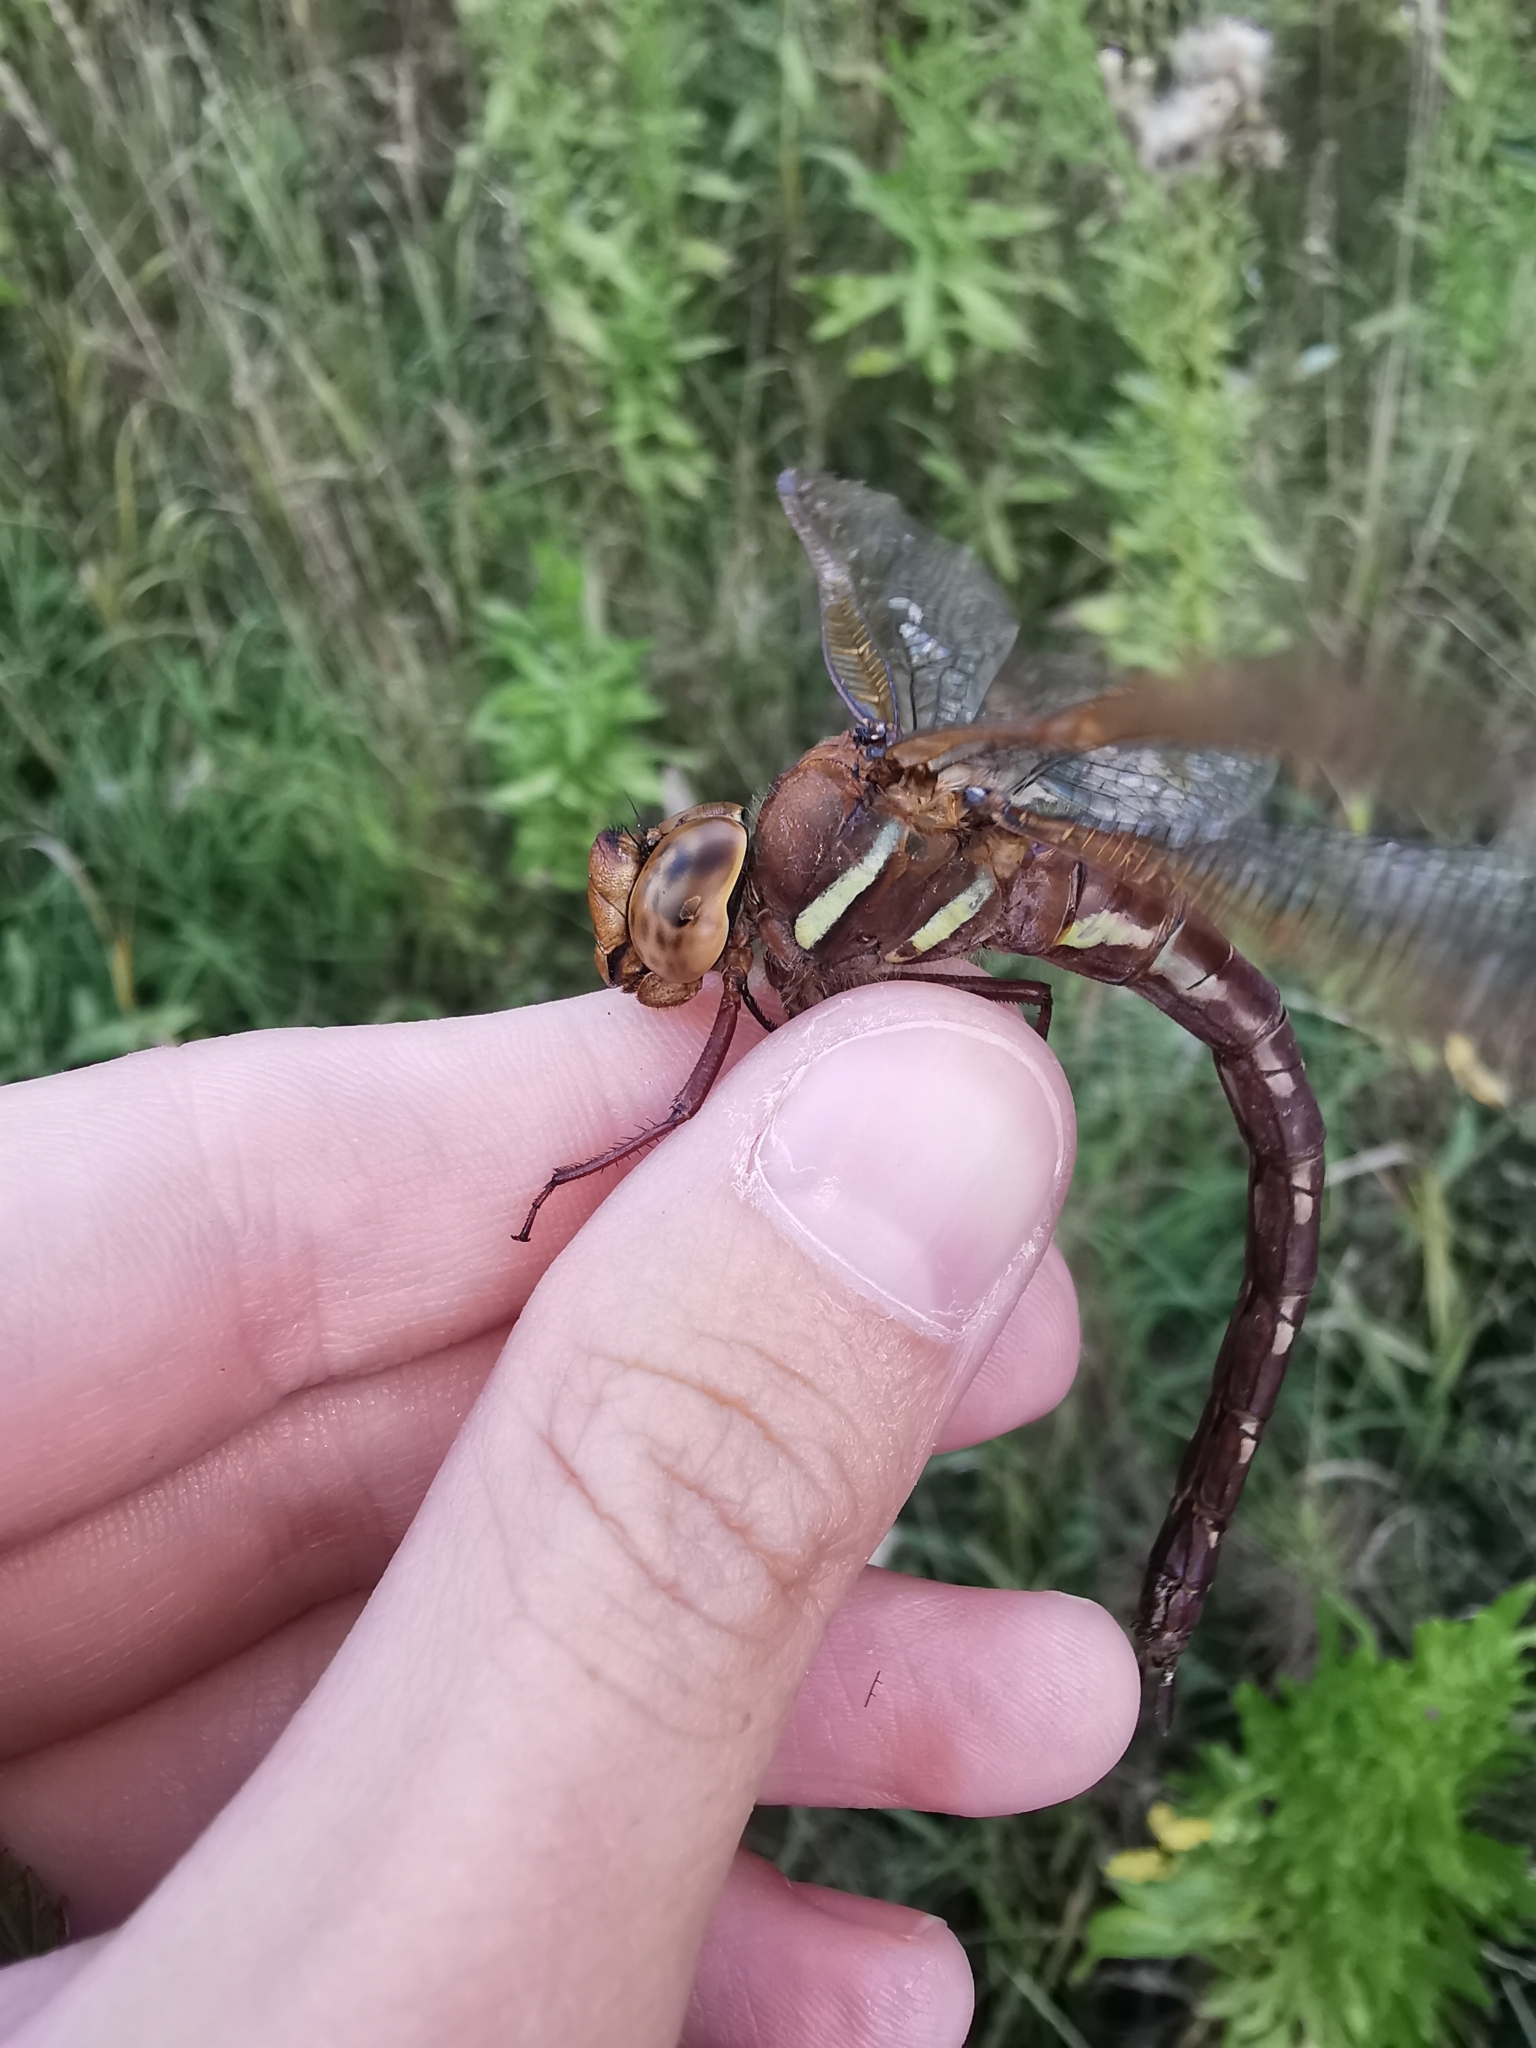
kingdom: Animalia
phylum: Arthropoda
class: Insecta
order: Odonata
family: Aeshnidae
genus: Aeshna
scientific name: Aeshna grandis
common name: Brown hawker
